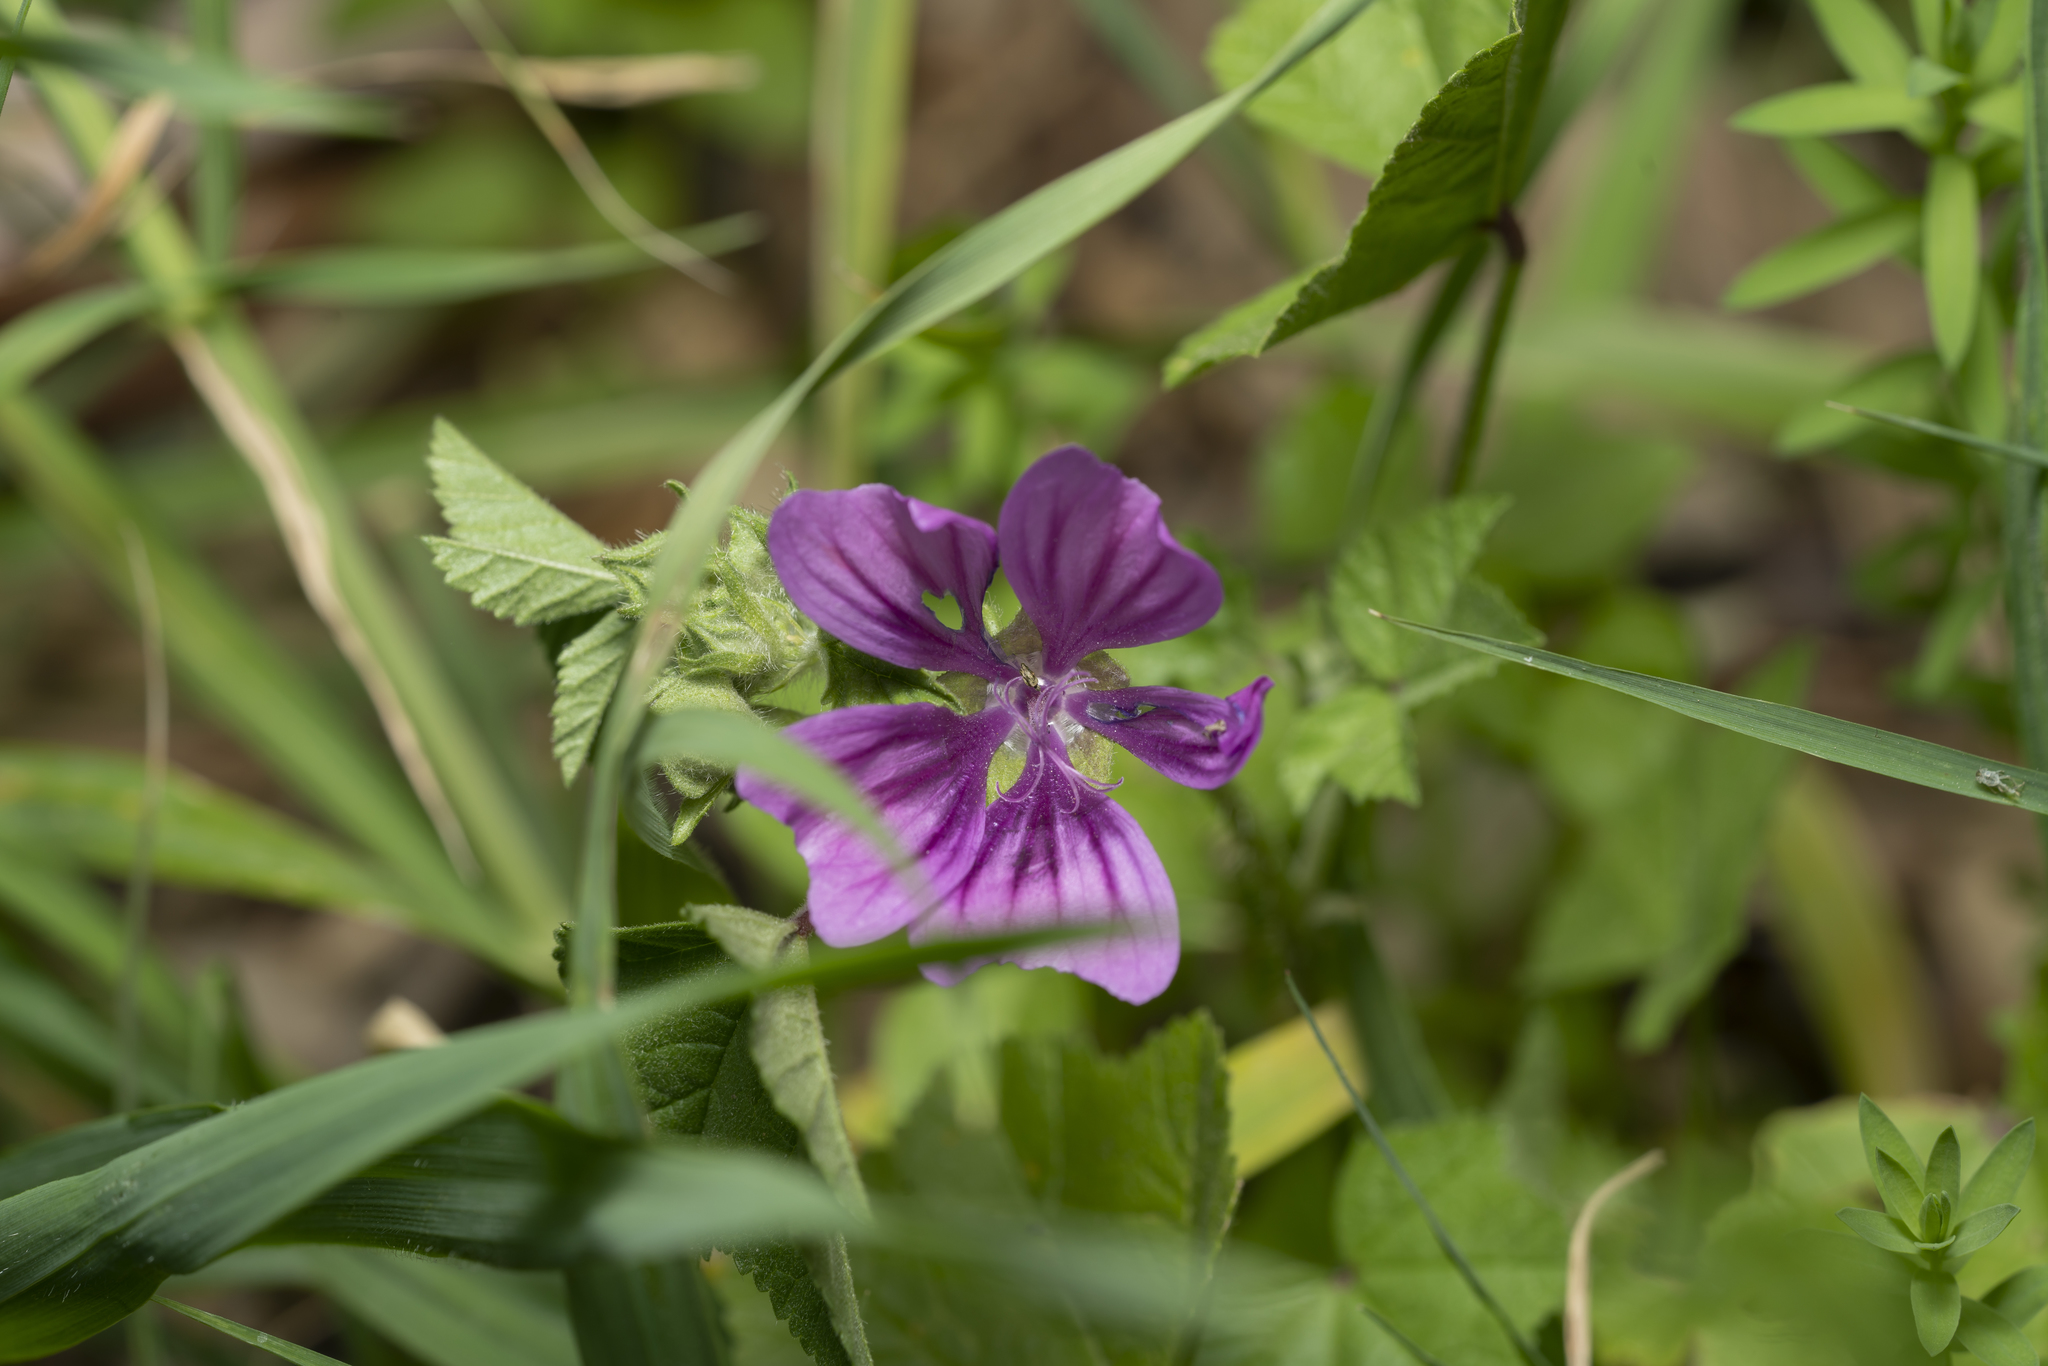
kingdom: Plantae
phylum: Tracheophyta
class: Magnoliopsida
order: Malvales
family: Malvaceae
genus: Malva
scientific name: Malva sylvestris
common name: Common mallow
